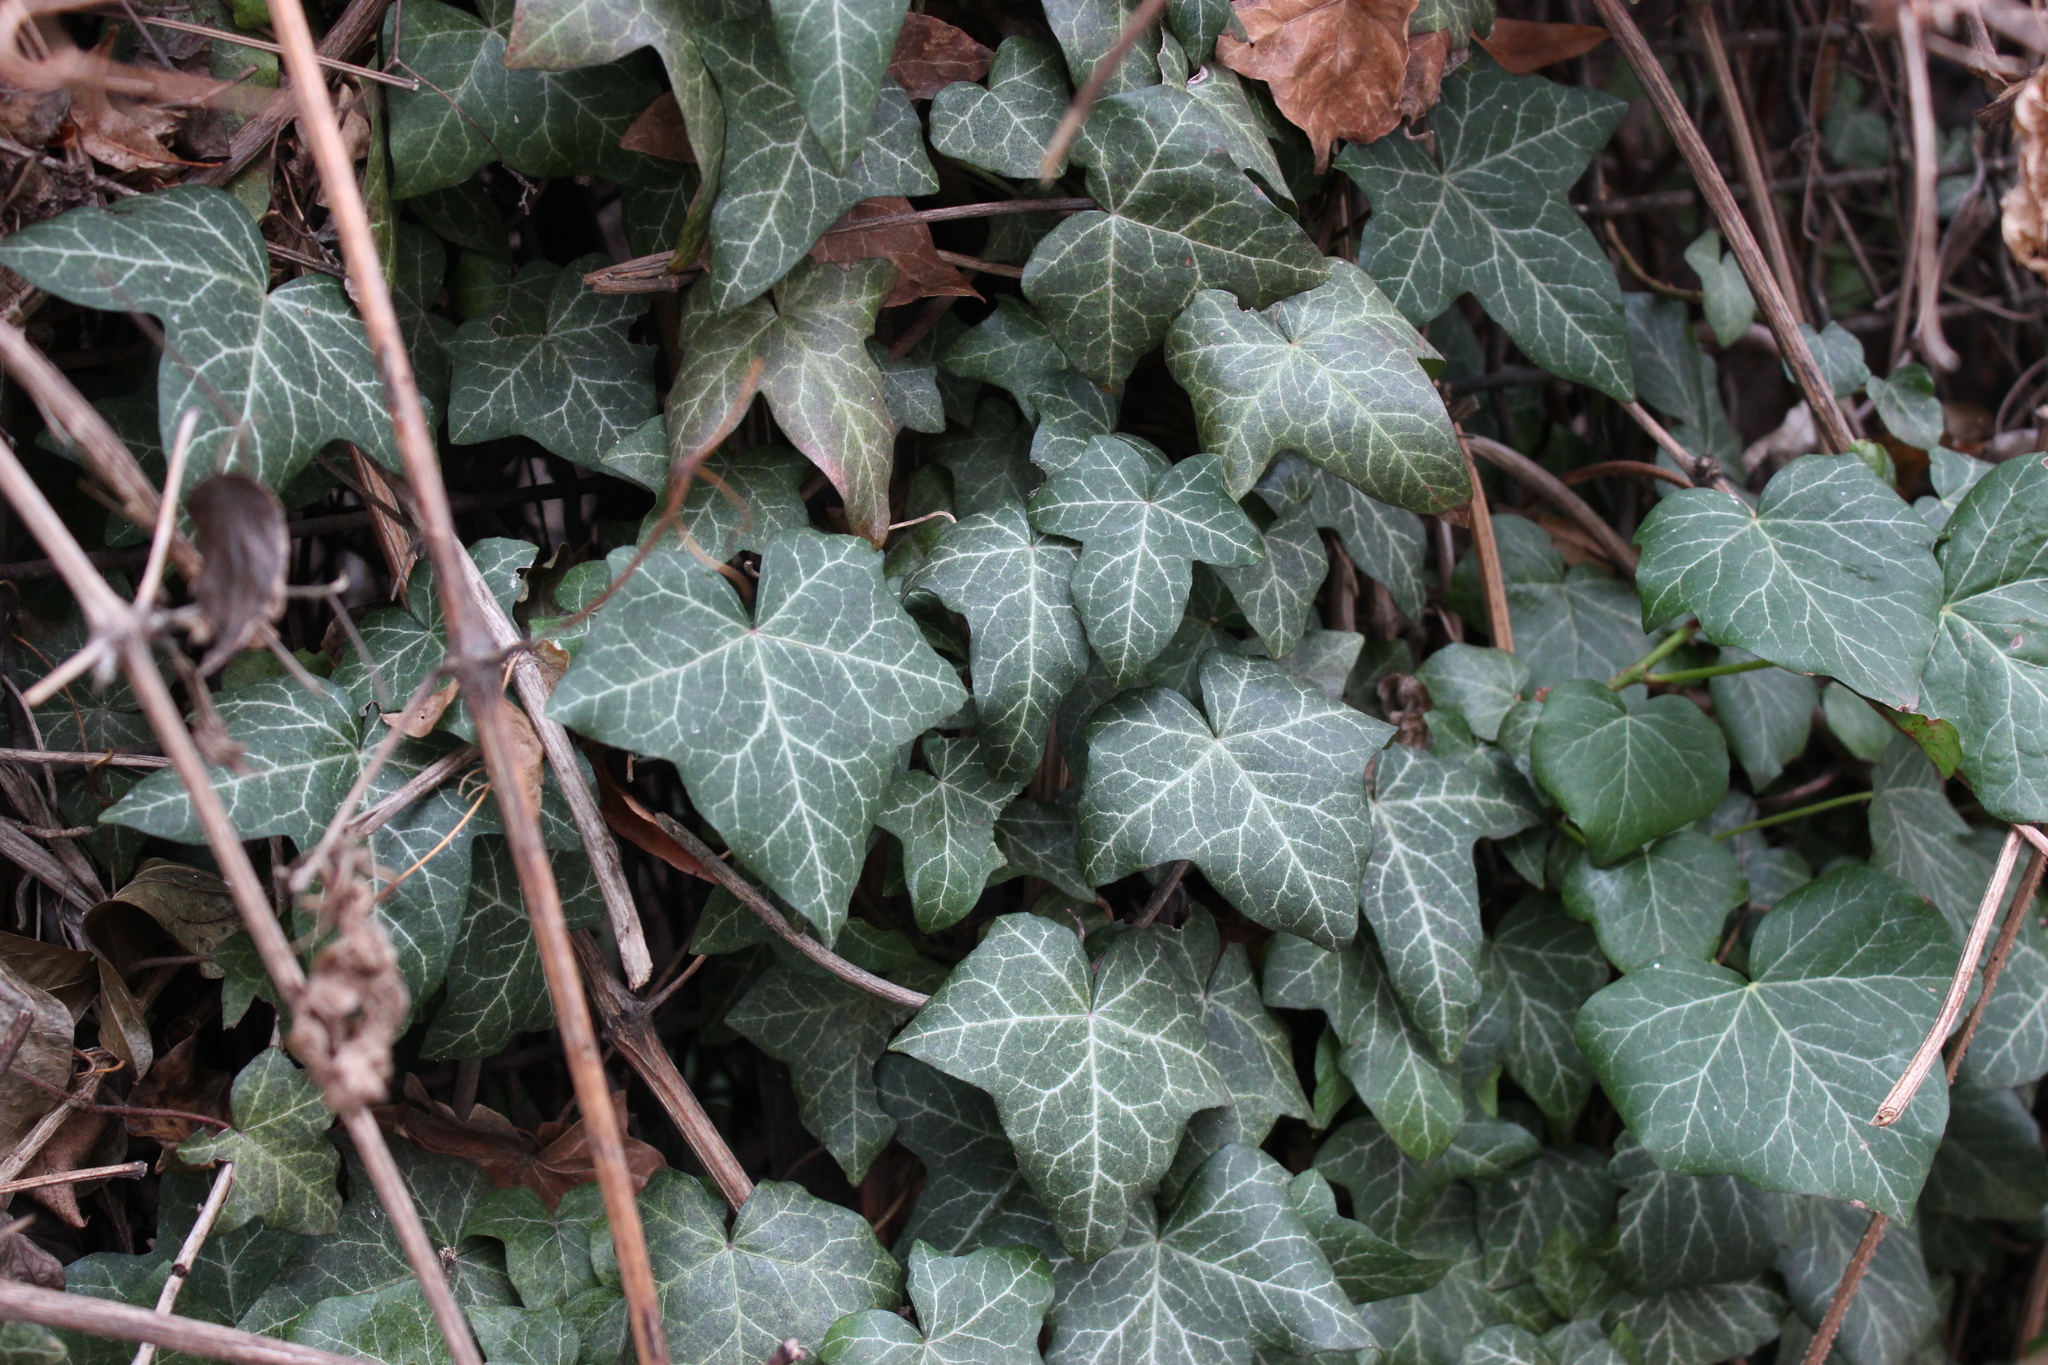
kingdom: Plantae
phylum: Tracheophyta
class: Magnoliopsida
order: Apiales
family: Araliaceae
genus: Hedera
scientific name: Hedera helix
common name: Ivy
